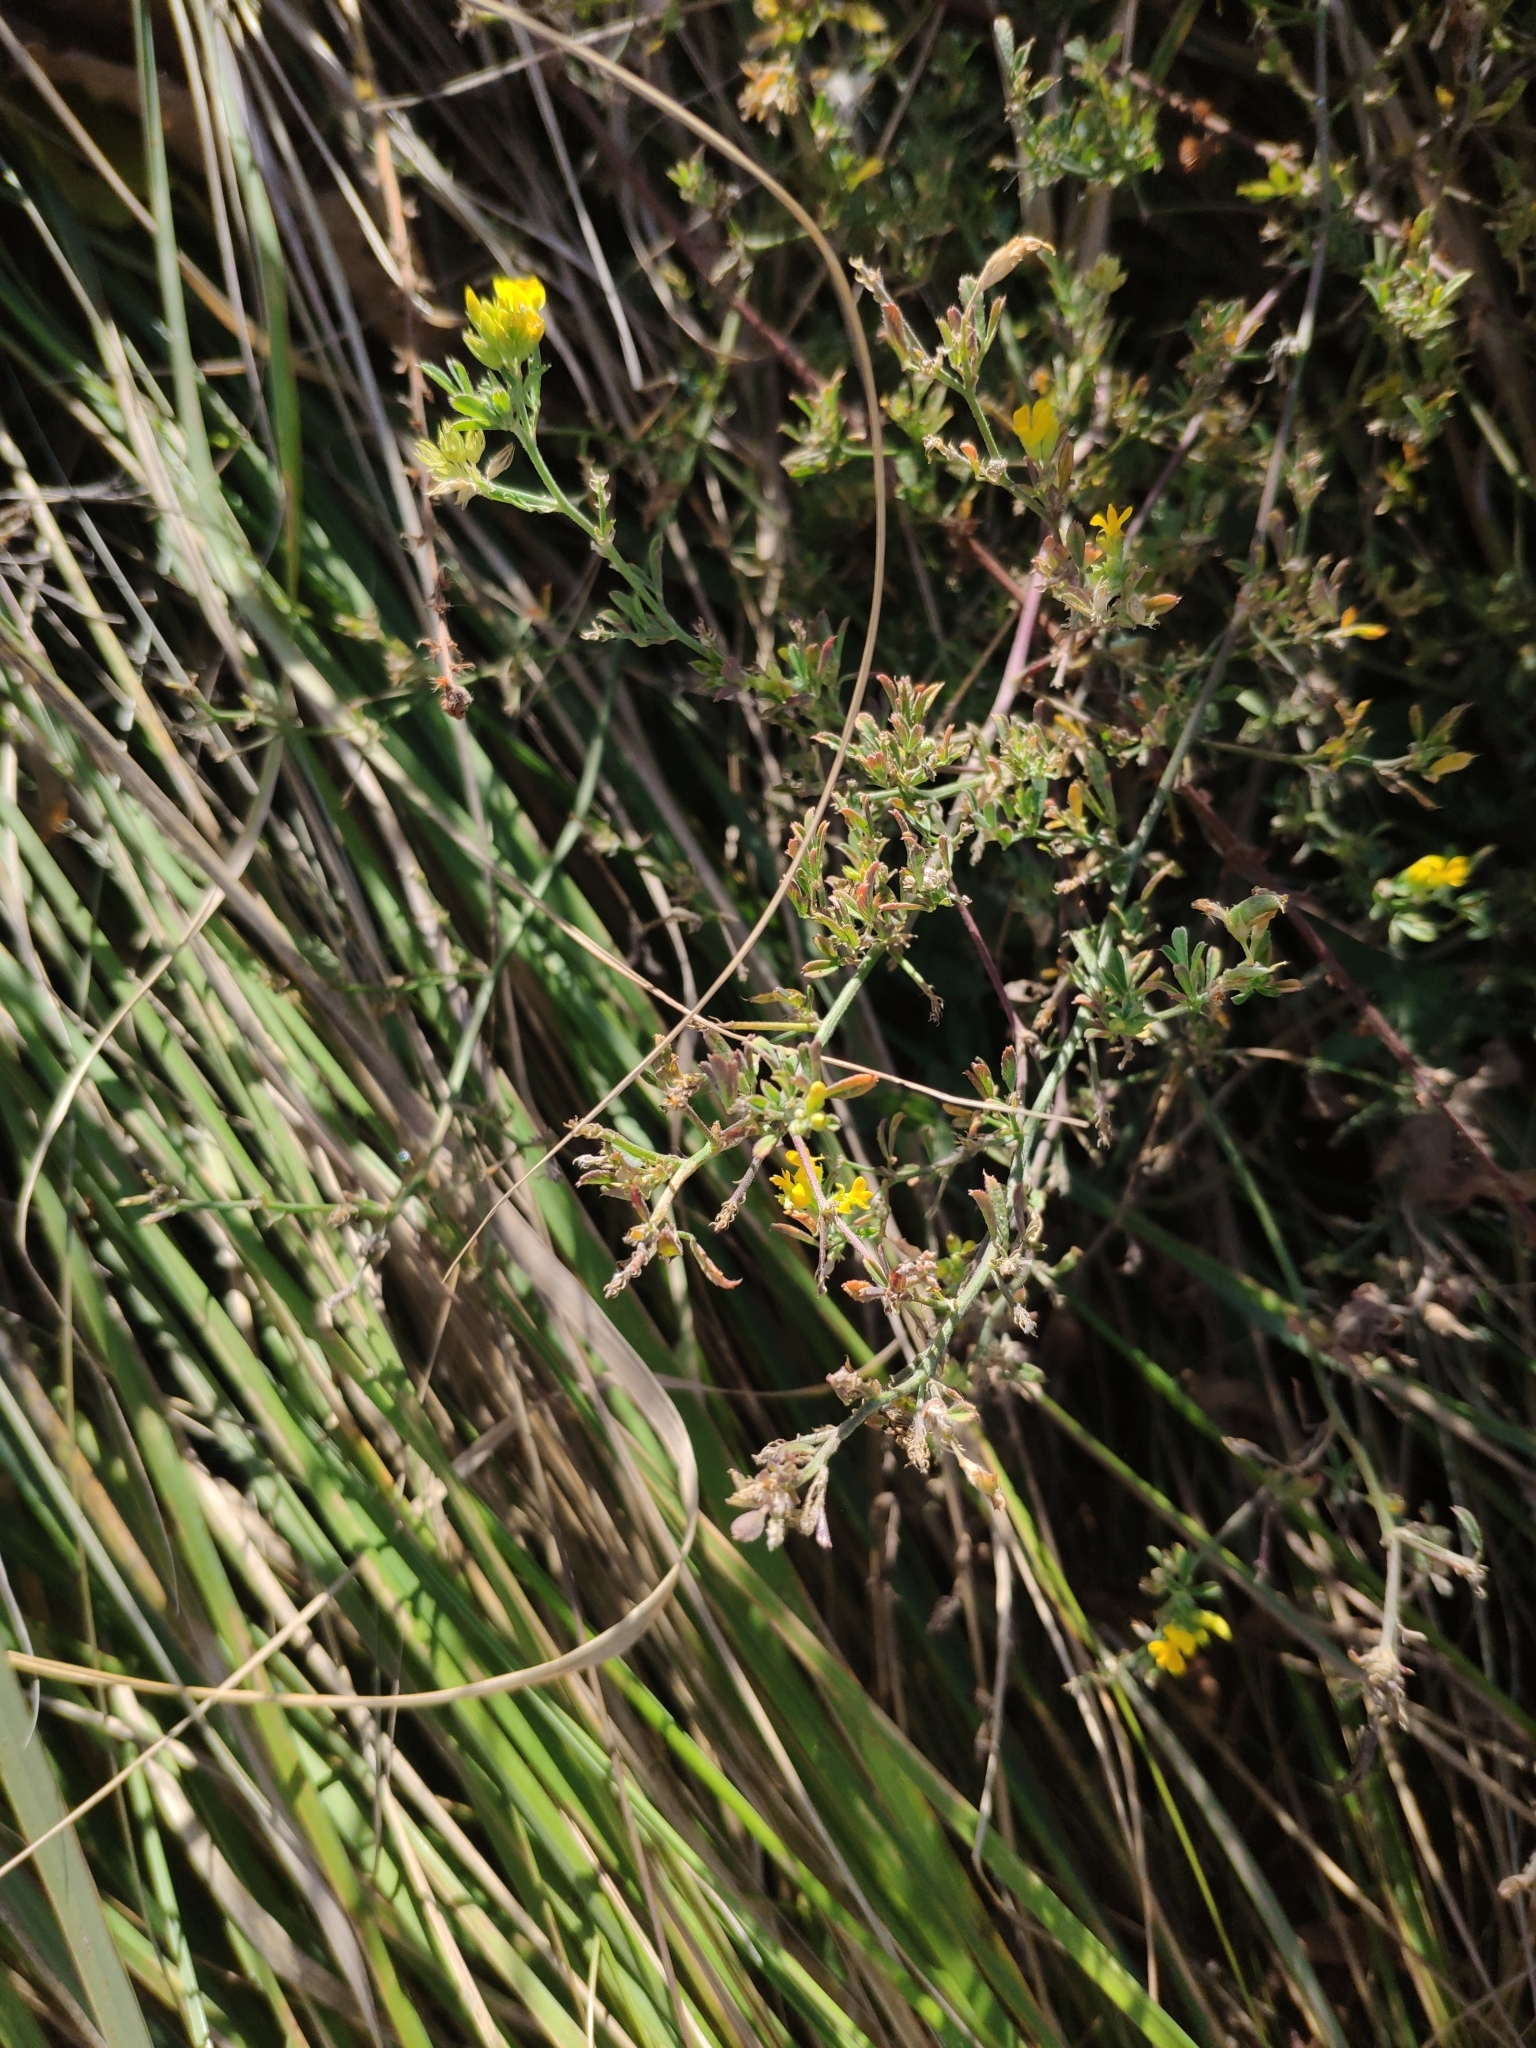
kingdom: Plantae
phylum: Tracheophyta
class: Magnoliopsida
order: Fabales
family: Fabaceae
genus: Medicago
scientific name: Medicago falcata
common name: Sickle medick
